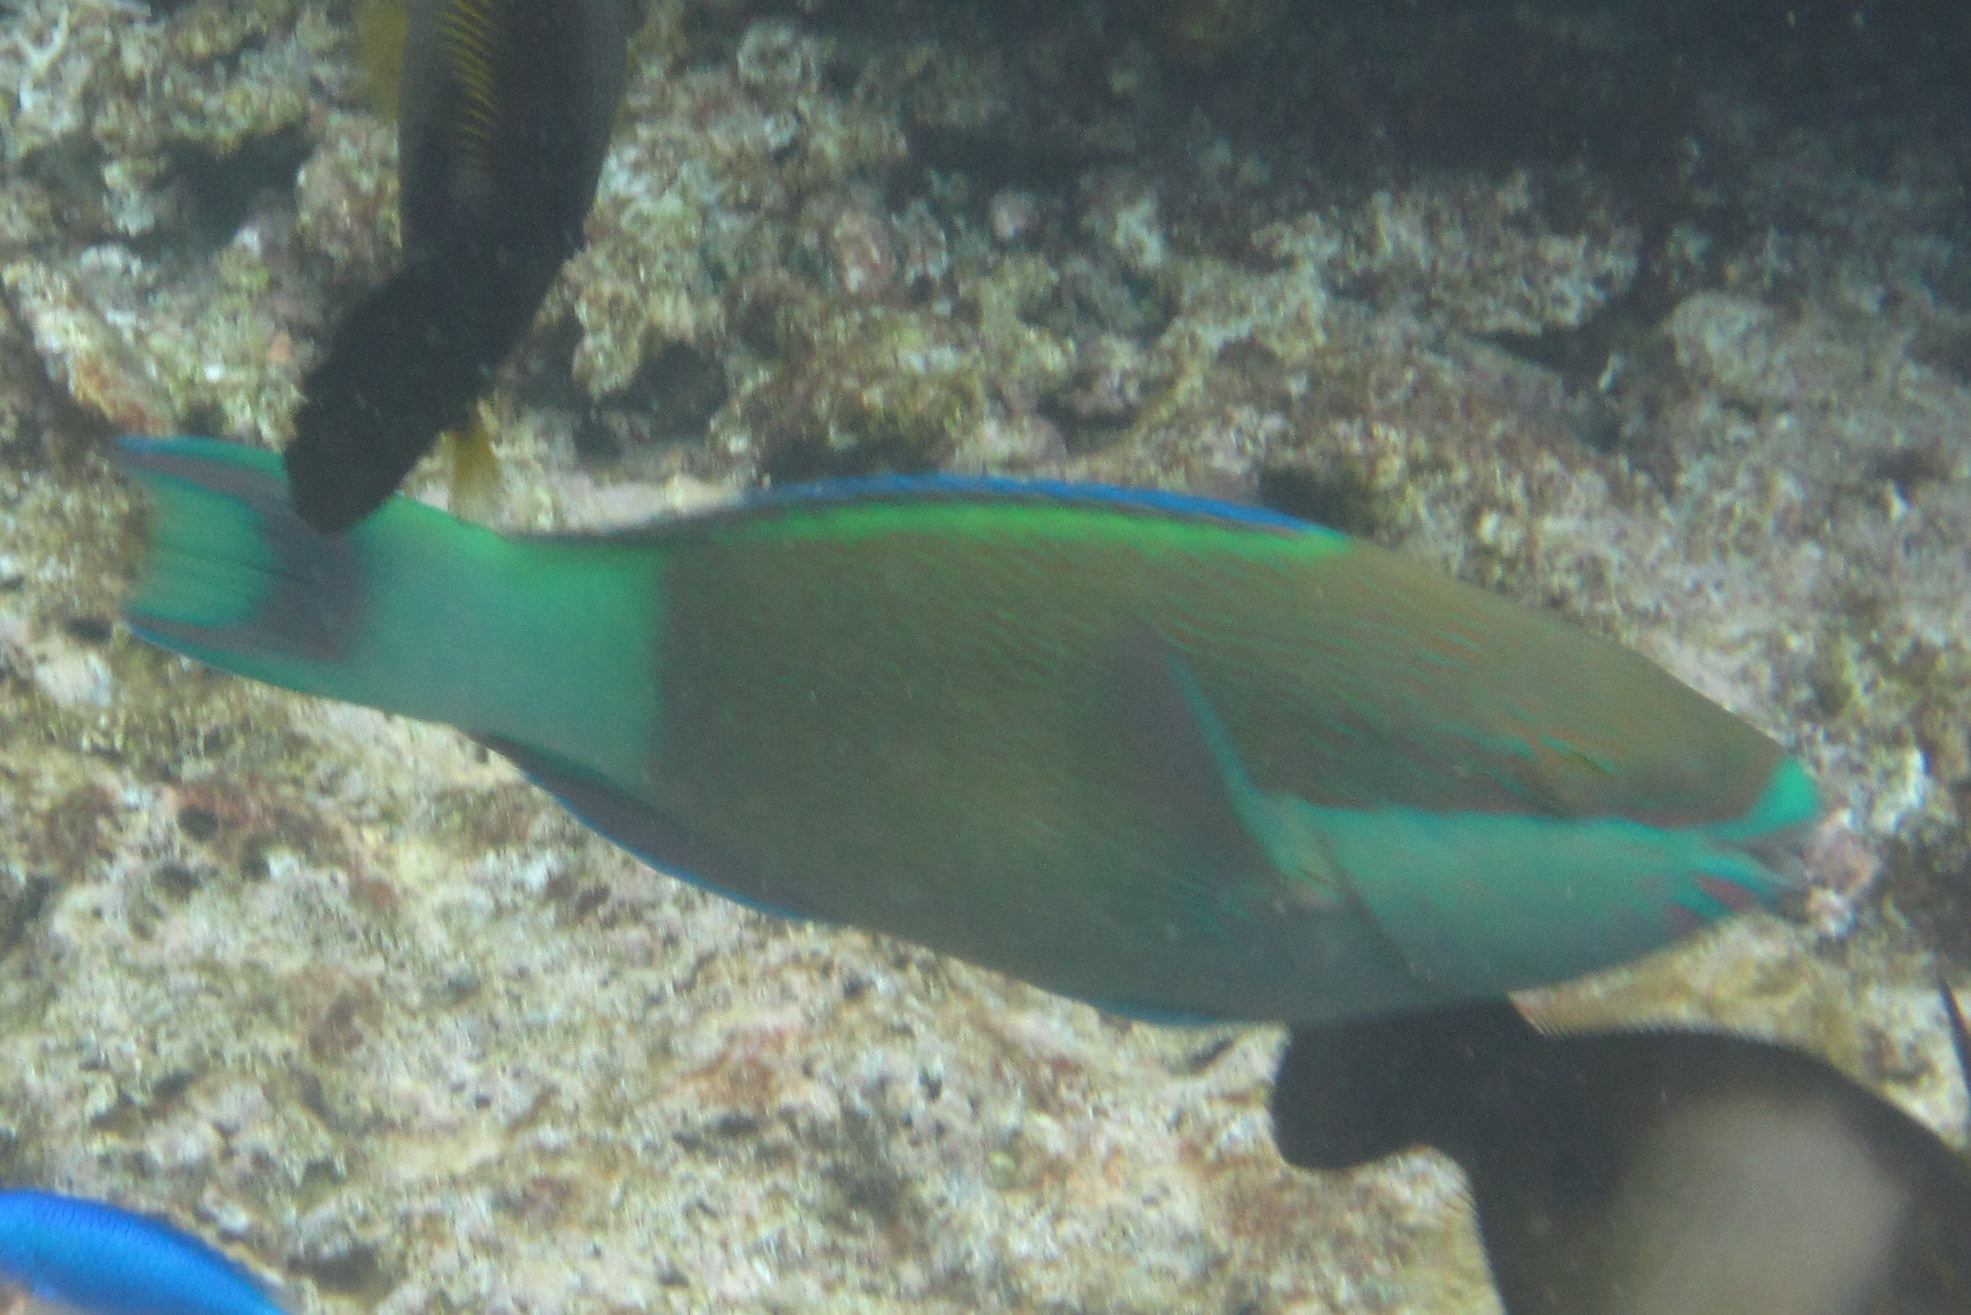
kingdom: Animalia
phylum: Chordata
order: Perciformes
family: Scaridae
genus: Scarus
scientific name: Scarus frenatus
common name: Bridled parrotfish
